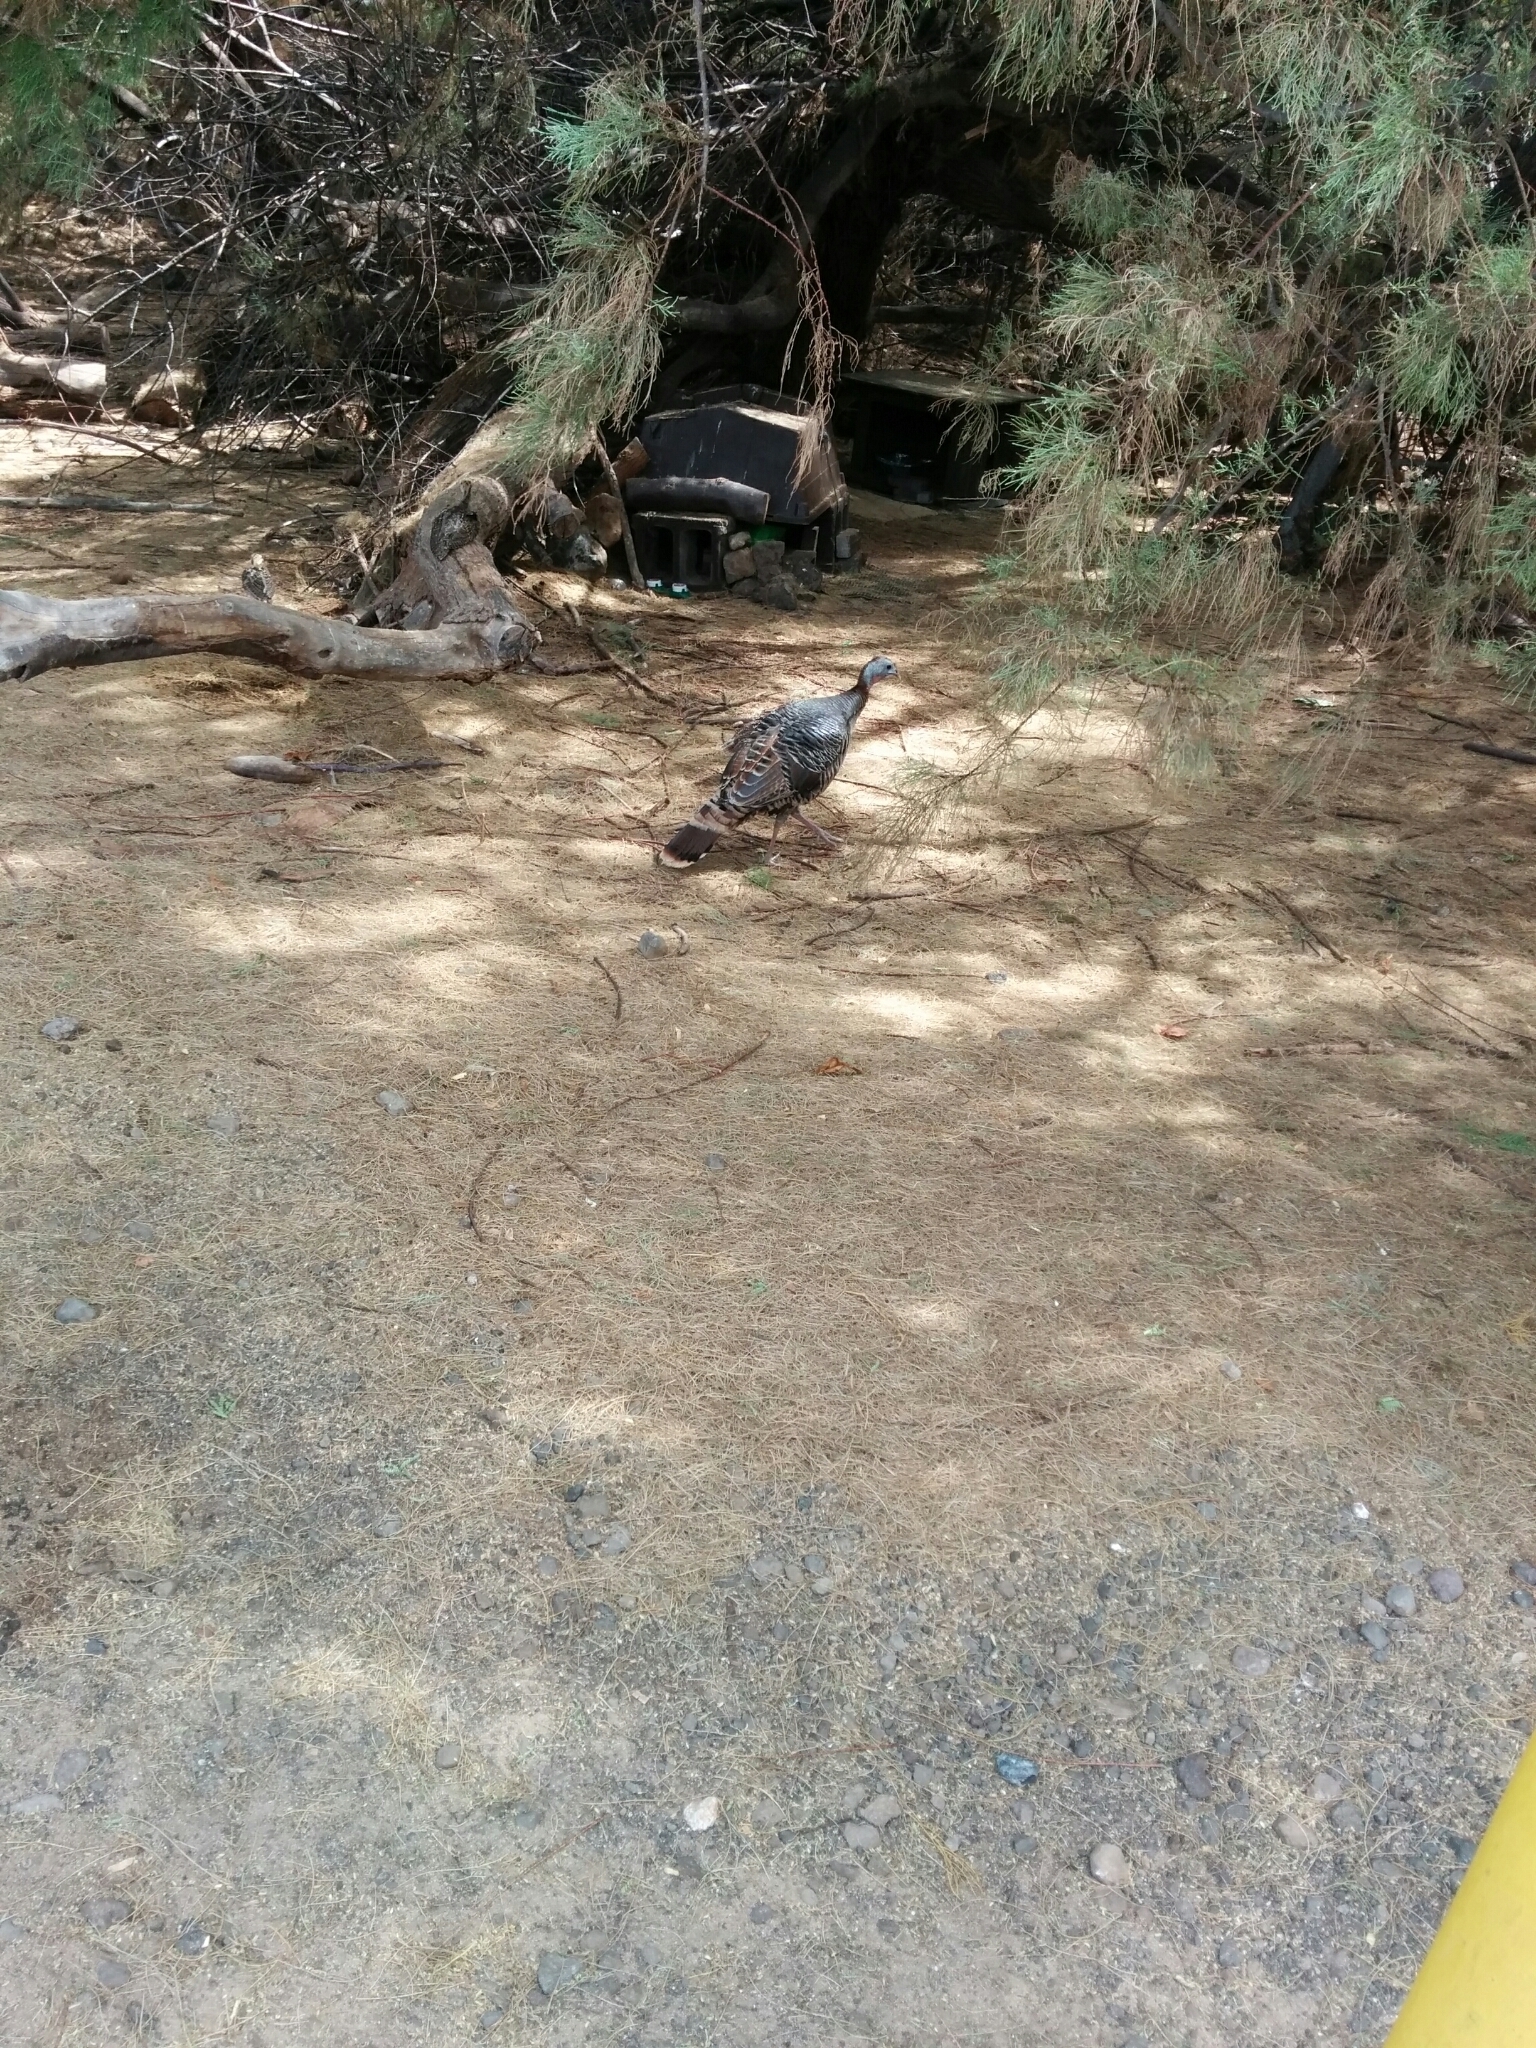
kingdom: Animalia
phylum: Chordata
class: Aves
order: Galliformes
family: Phasianidae
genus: Meleagris
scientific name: Meleagris gallopavo
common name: Wild turkey
